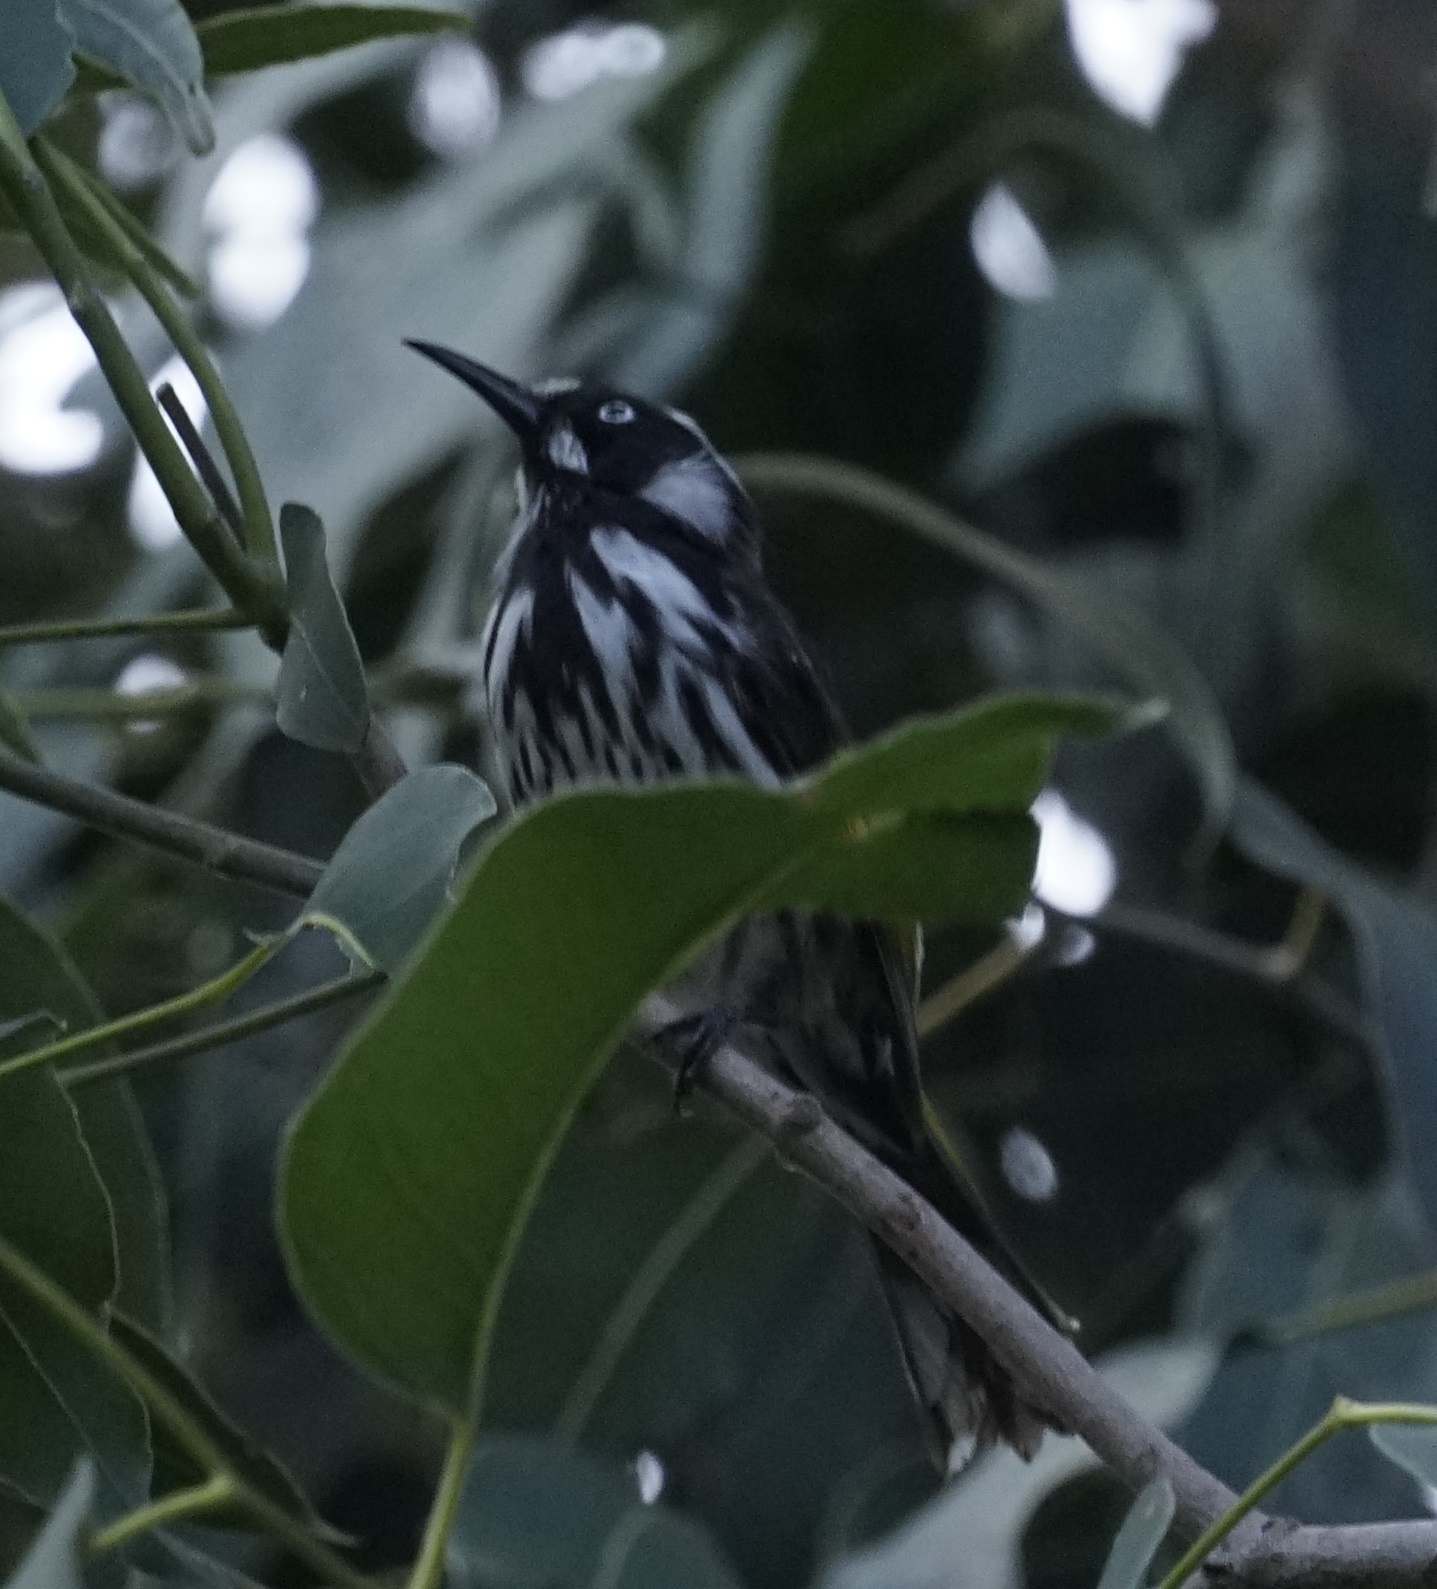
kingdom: Animalia
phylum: Chordata
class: Aves
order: Passeriformes
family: Meliphagidae
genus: Phylidonyris
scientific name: Phylidonyris novaehollandiae
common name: New holland honeyeater
